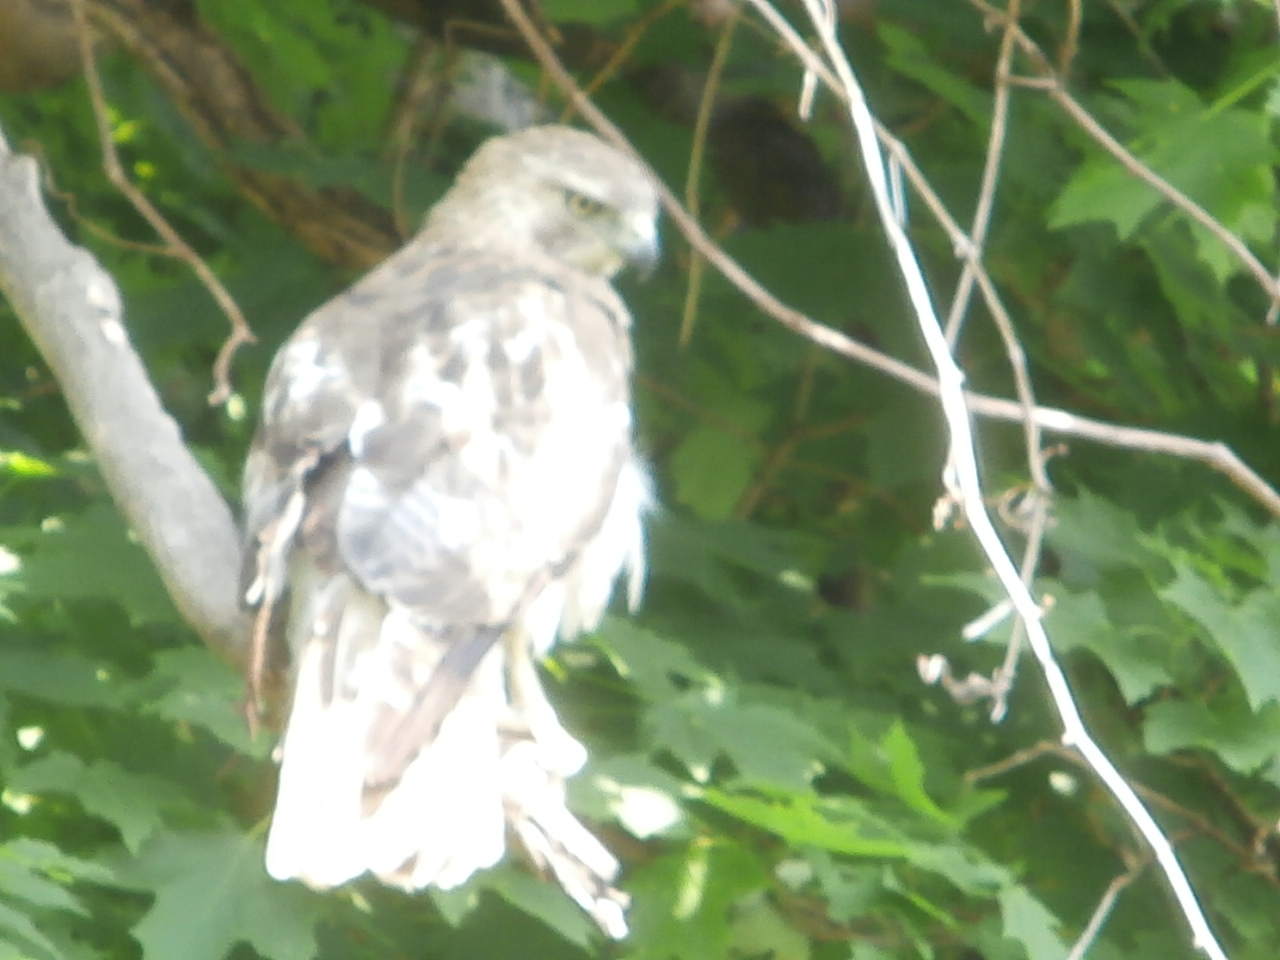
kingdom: Animalia
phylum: Chordata
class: Aves
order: Accipitriformes
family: Accipitridae
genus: Buteo
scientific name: Buteo jamaicensis
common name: Red-tailed hawk
